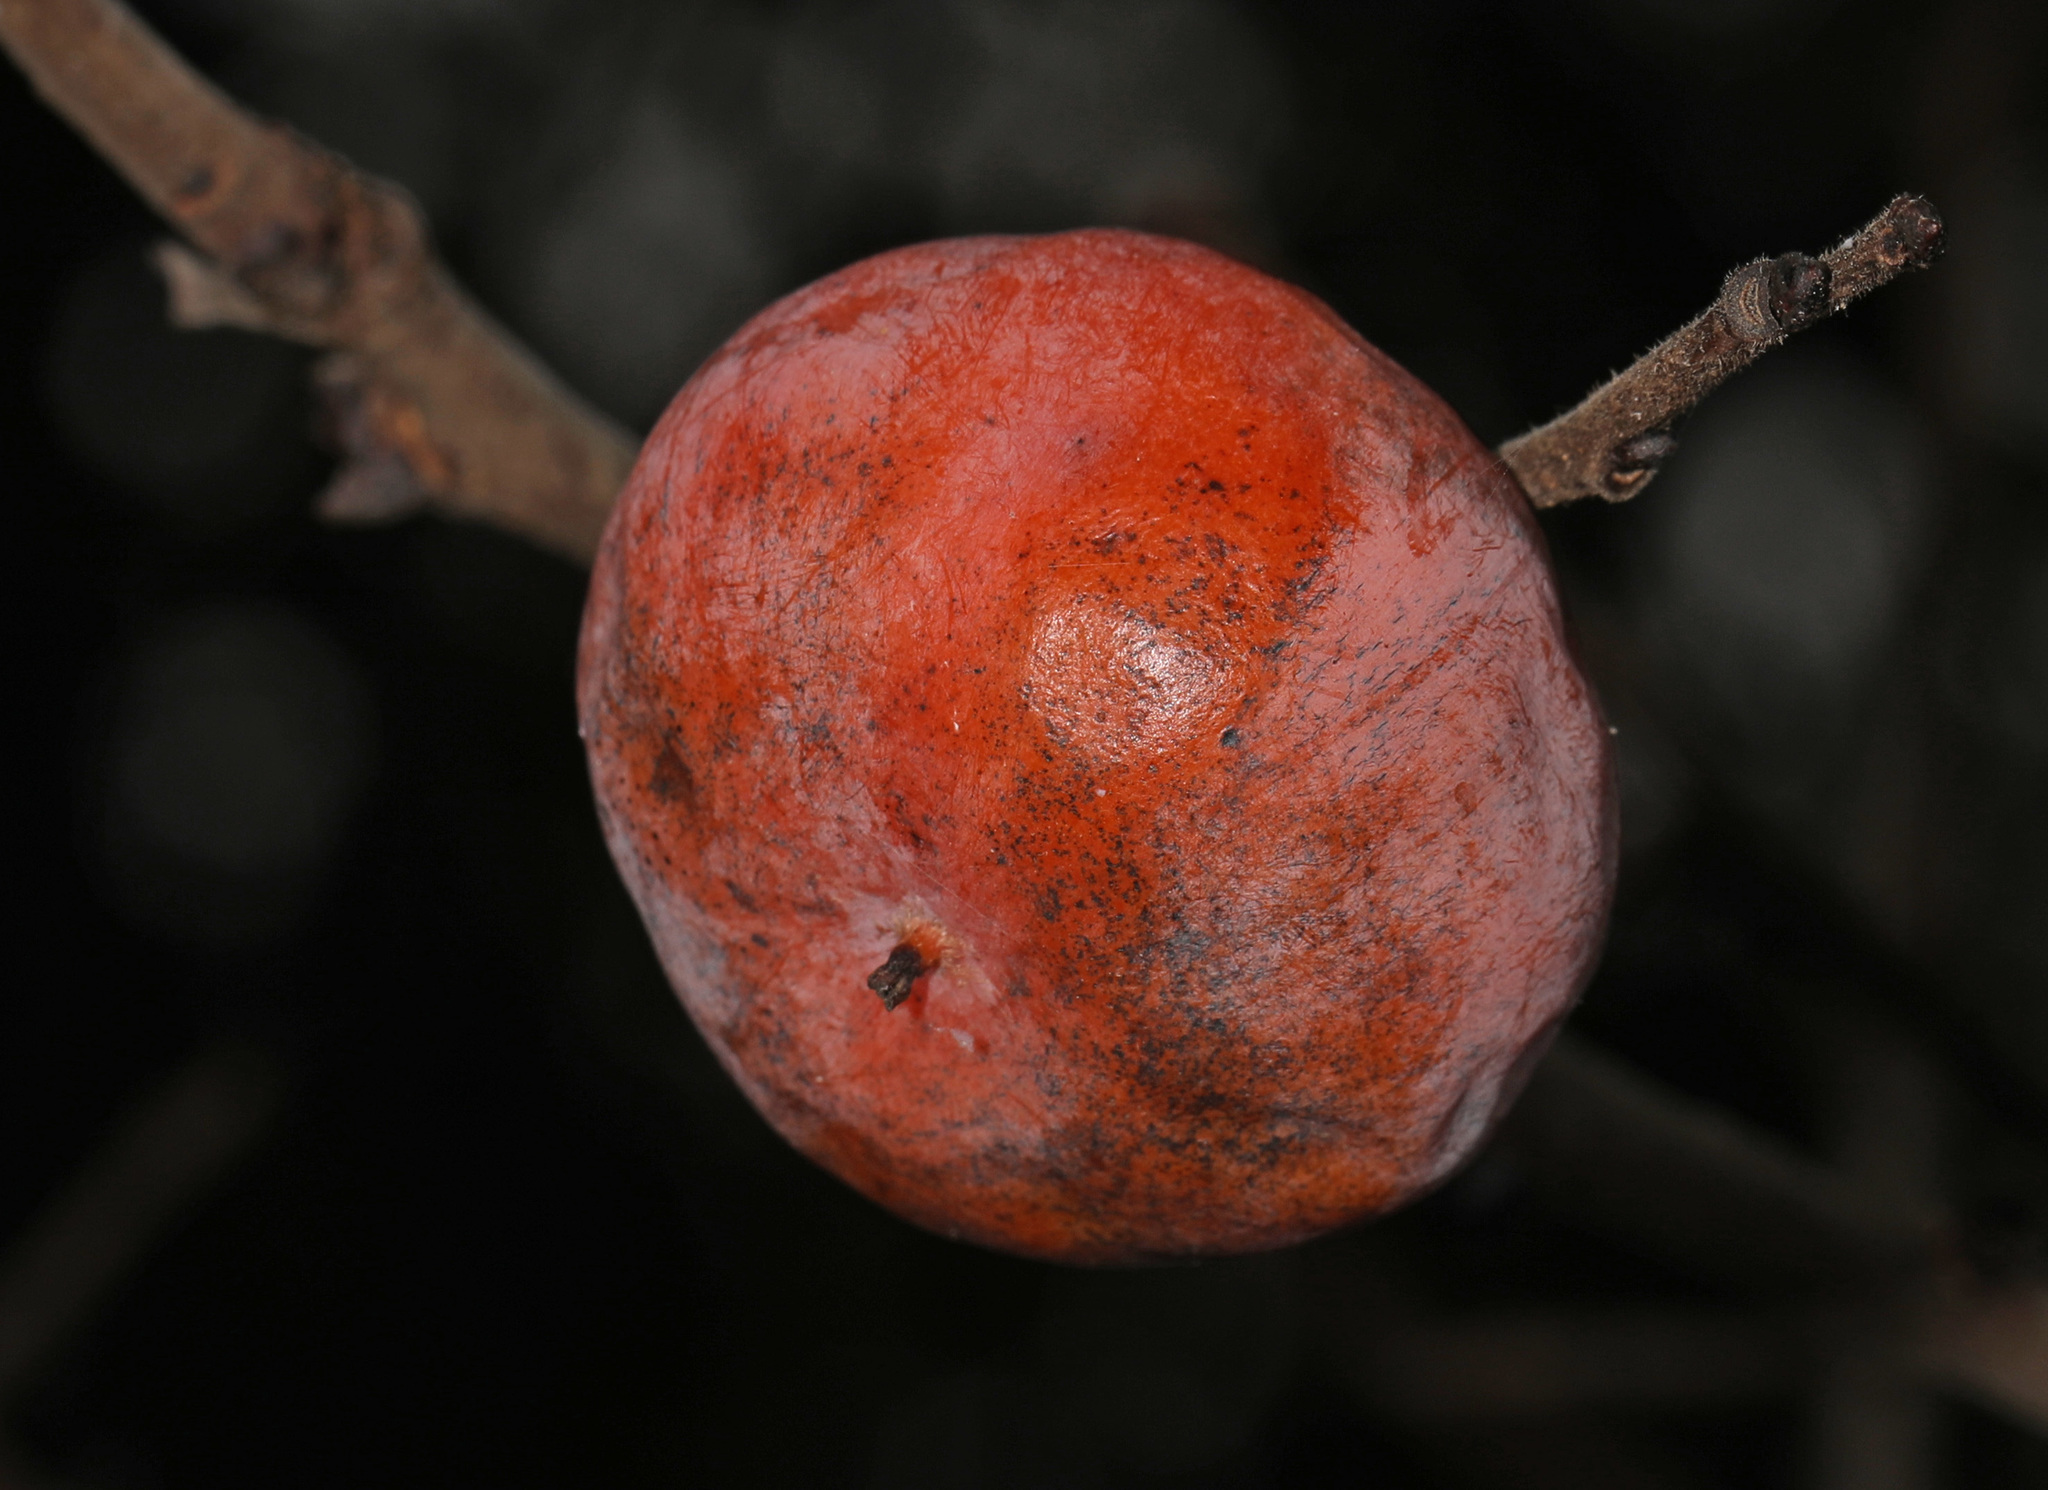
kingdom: Plantae
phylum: Tracheophyta
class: Magnoliopsida
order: Ericales
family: Ebenaceae
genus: Diospyros
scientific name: Diospyros virginiana
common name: Persimmon
